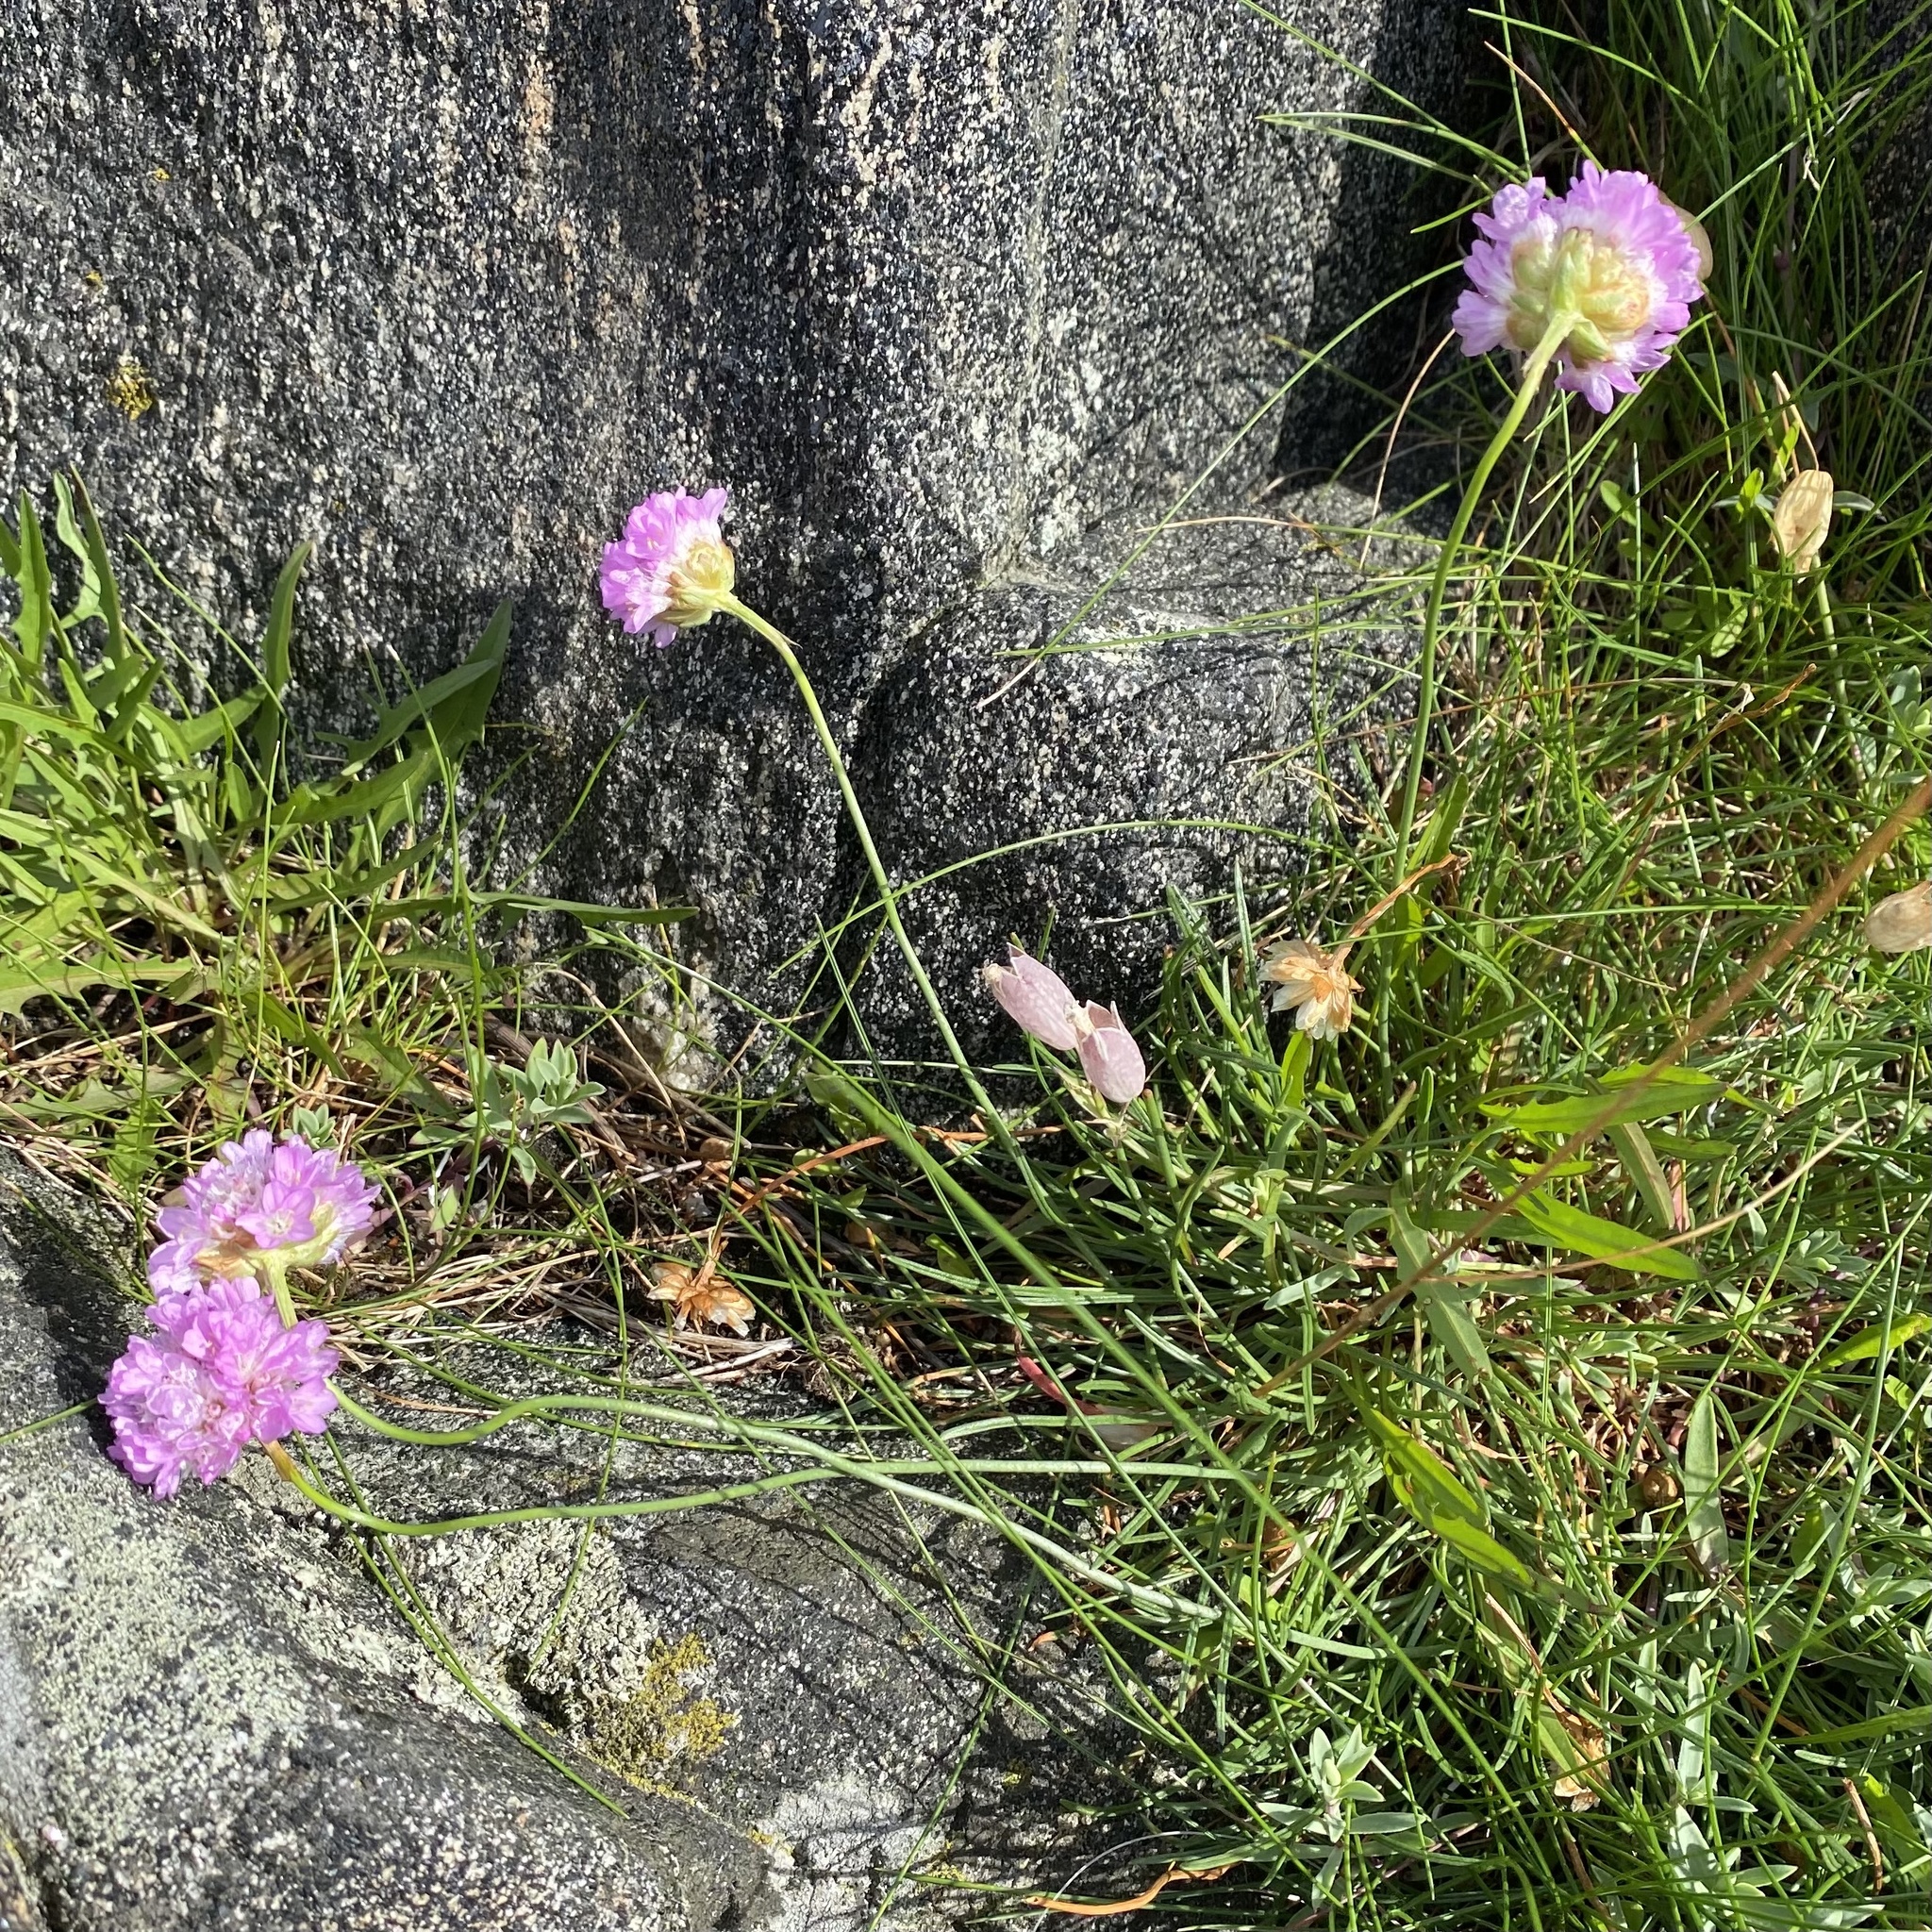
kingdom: Plantae
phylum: Tracheophyta
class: Magnoliopsida
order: Caryophyllales
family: Plumbaginaceae
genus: Armeria
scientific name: Armeria maritima
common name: Thrift
